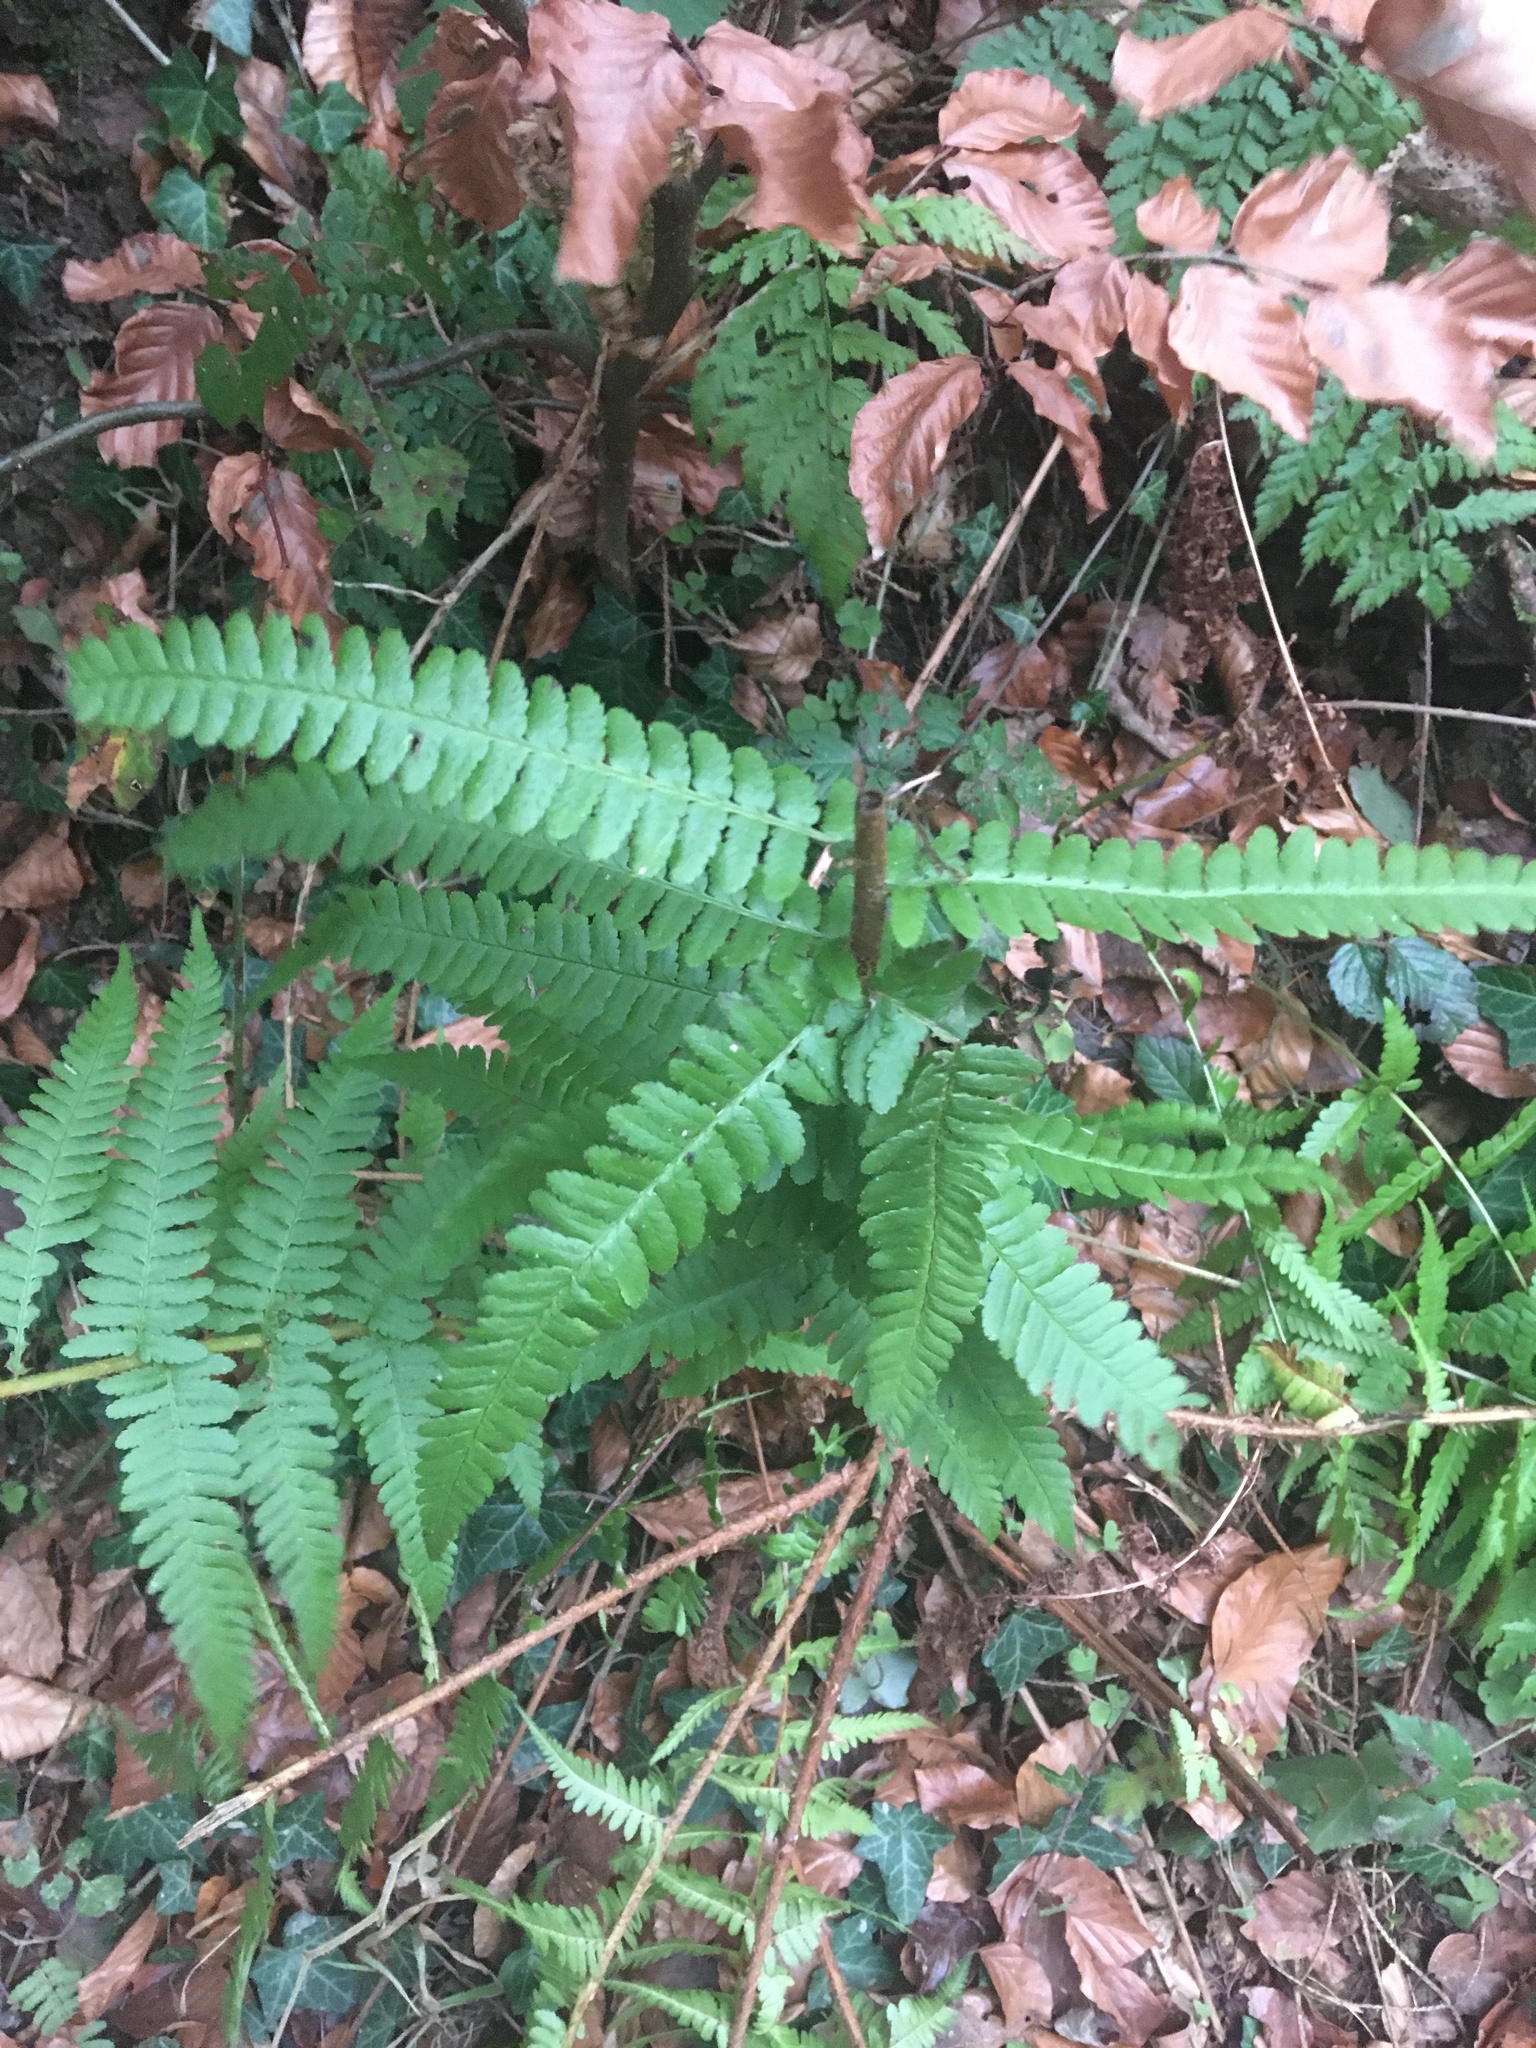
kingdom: Plantae
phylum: Tracheophyta
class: Polypodiopsida
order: Polypodiales
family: Dryopteridaceae
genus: Dryopteris
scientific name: Dryopteris filix-mas
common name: Male fern
